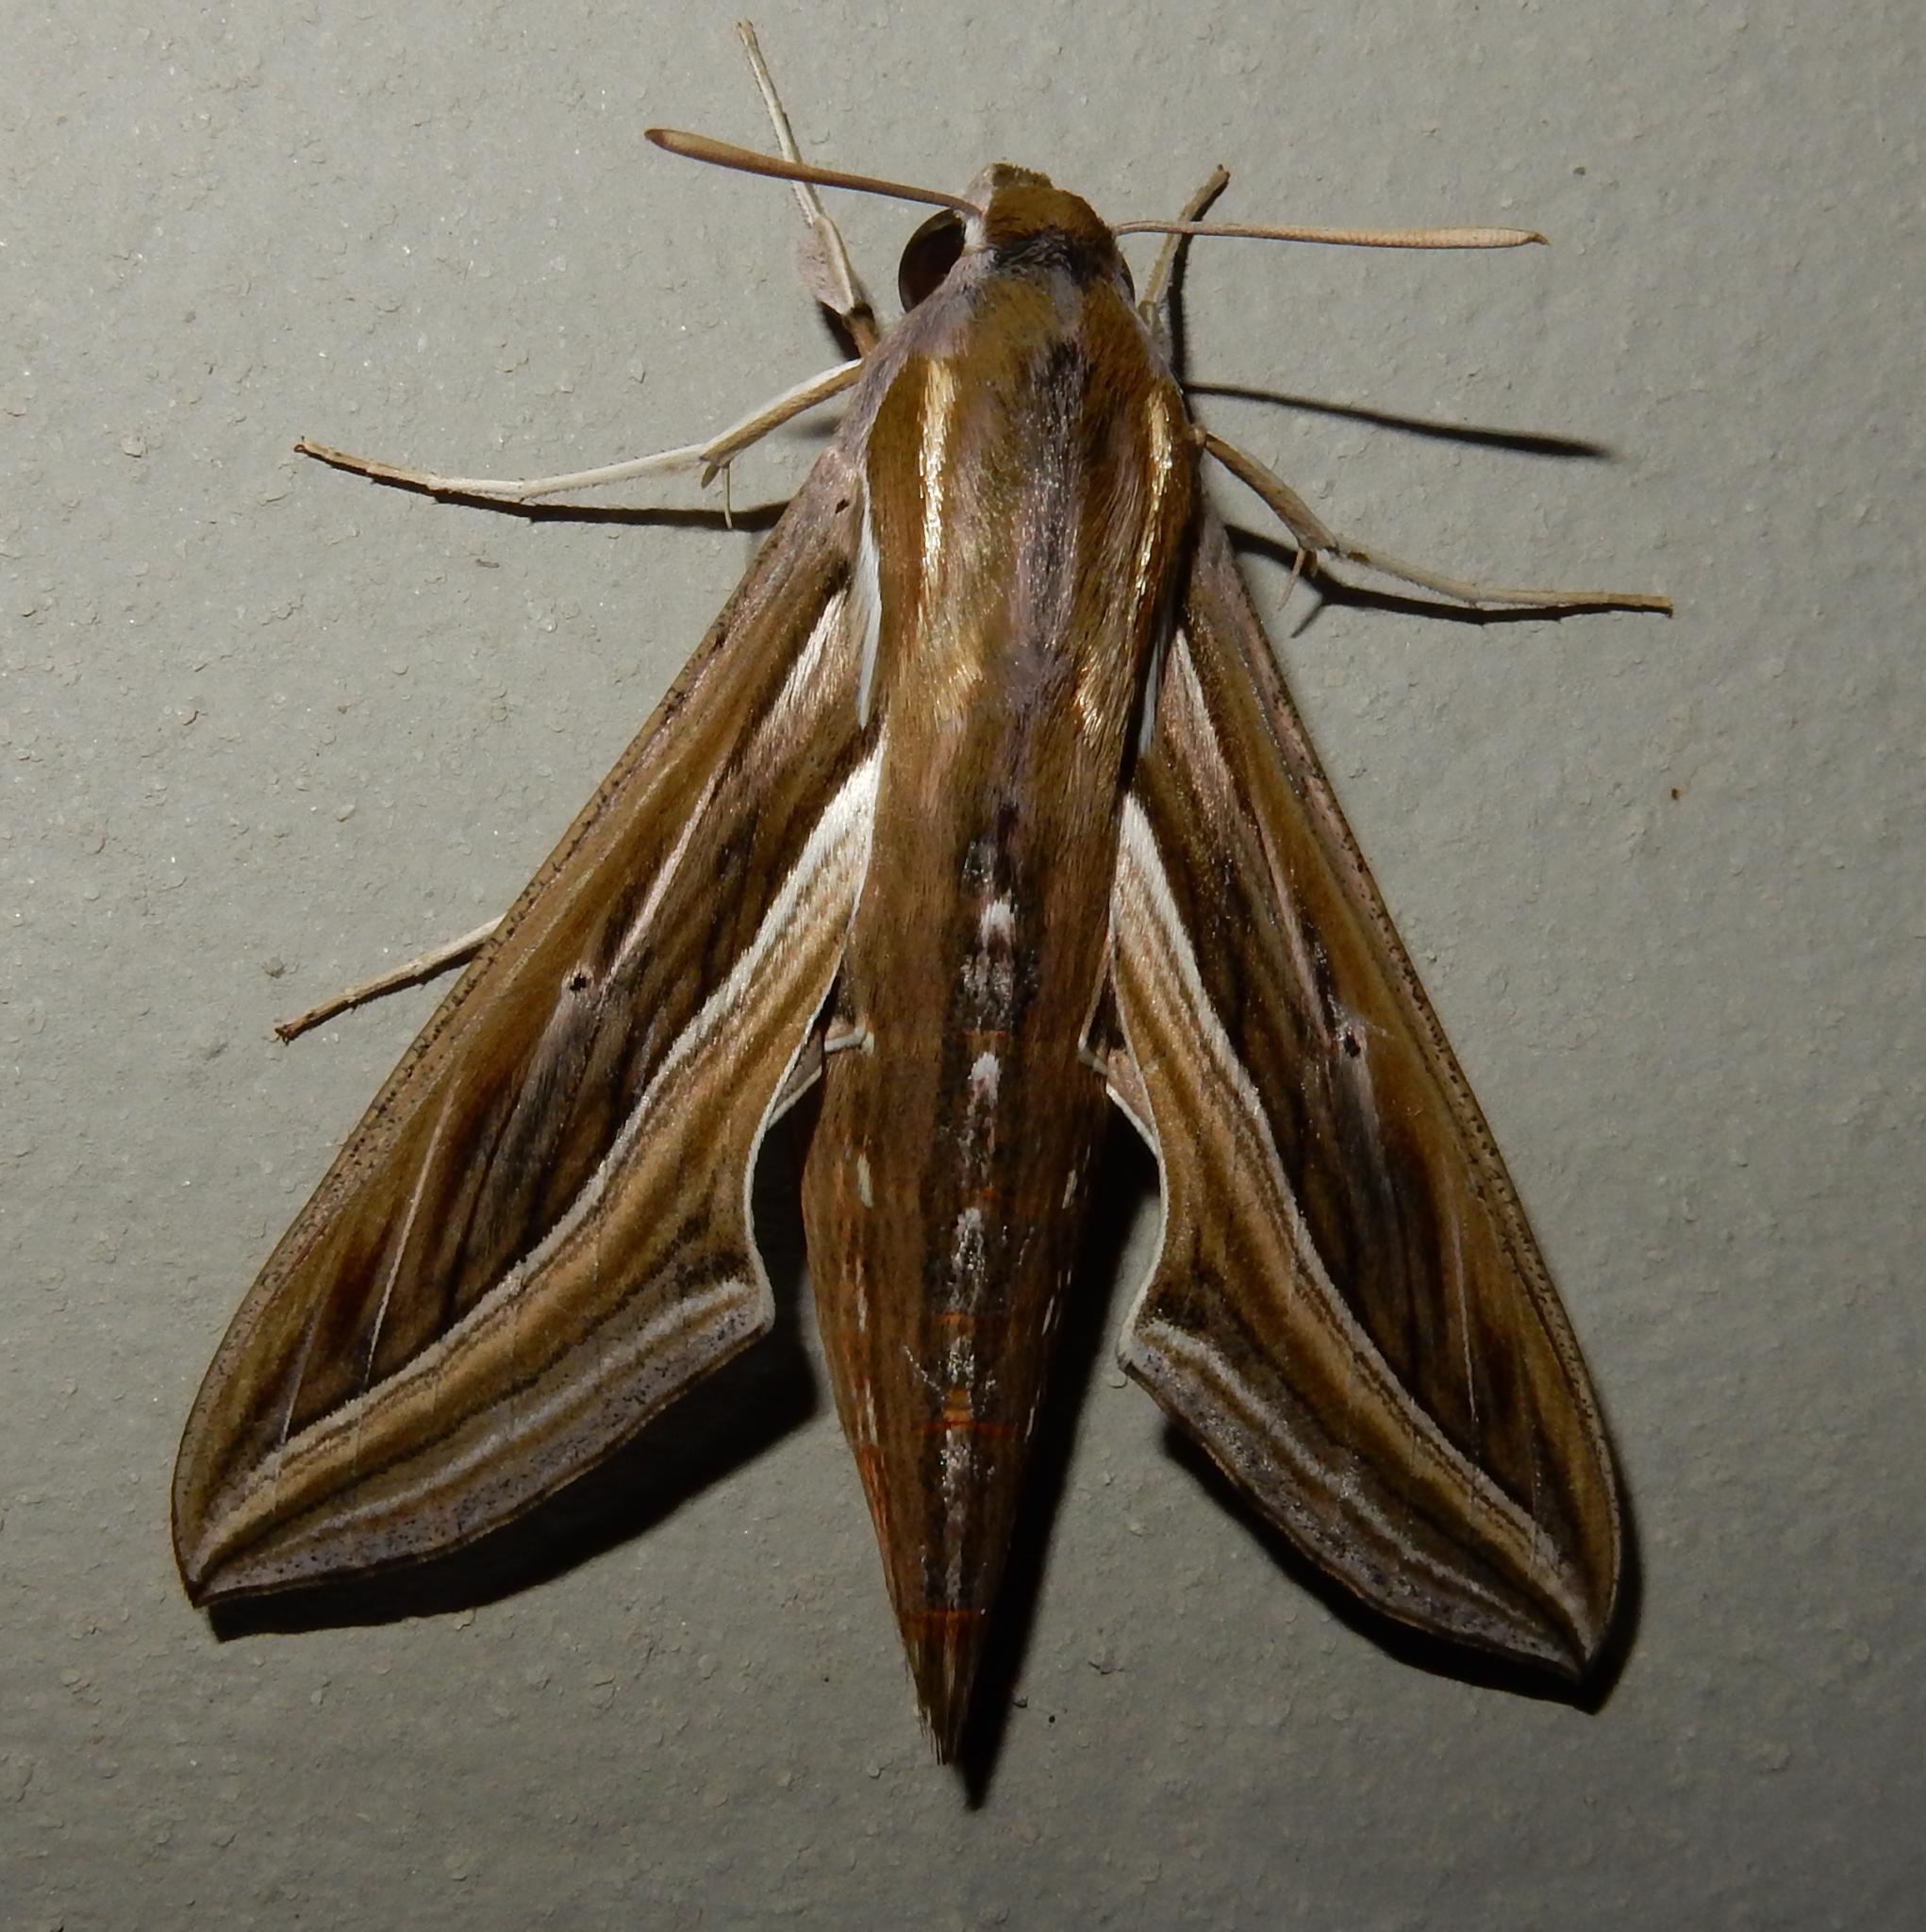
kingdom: Animalia
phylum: Arthropoda
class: Insecta
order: Lepidoptera
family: Sphingidae
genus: Hippotion
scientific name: Hippotion celerio
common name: Silver-striped hawk-moth
